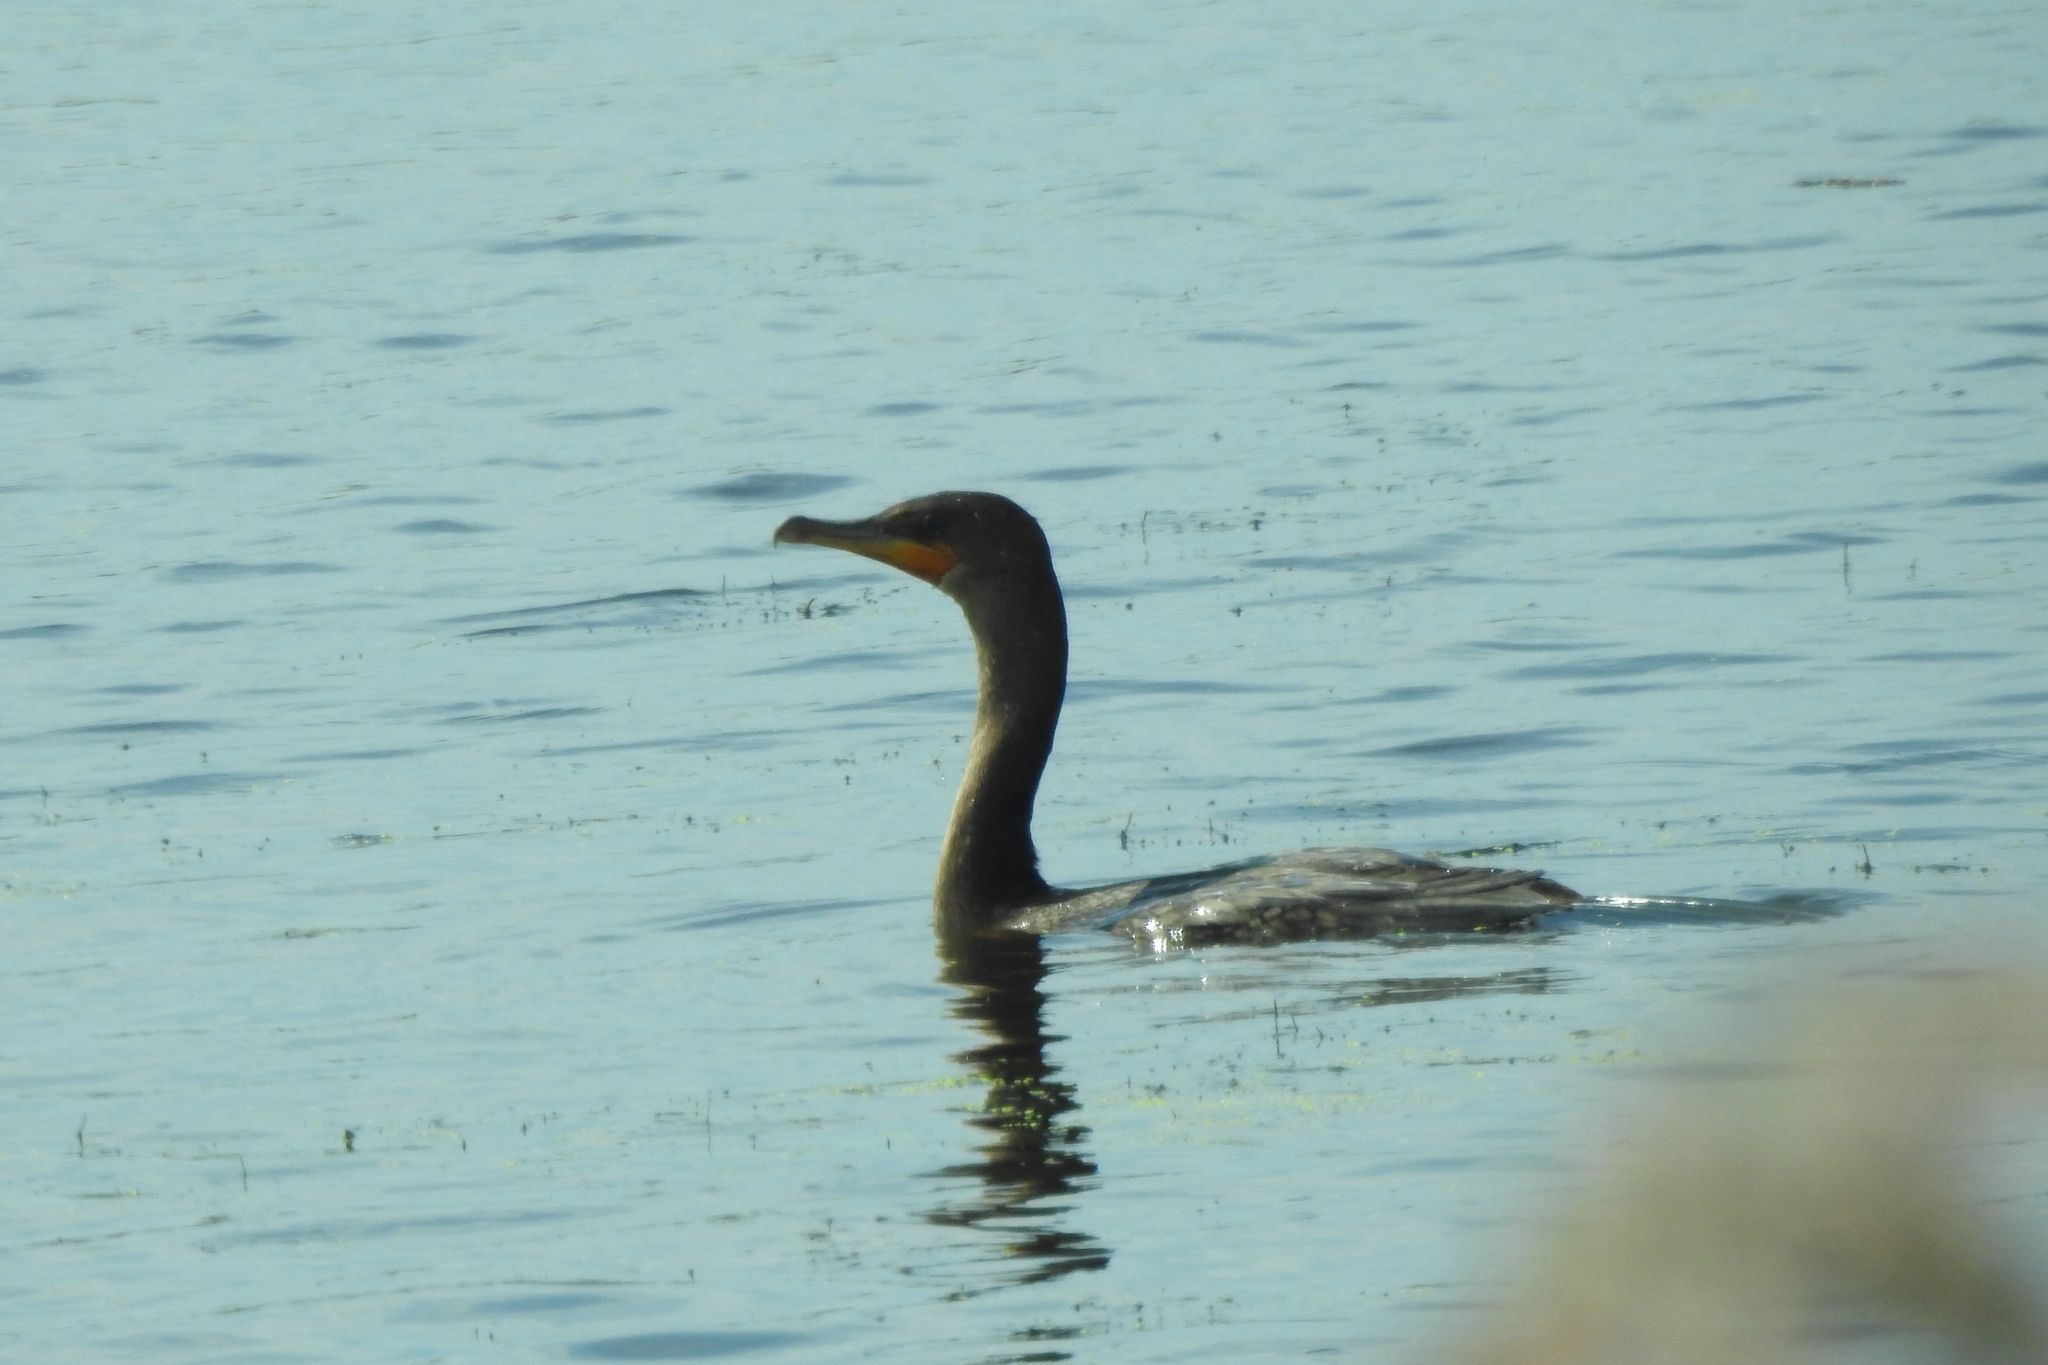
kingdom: Animalia
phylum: Chordata
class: Aves
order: Suliformes
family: Phalacrocoracidae
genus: Phalacrocorax
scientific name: Phalacrocorax auritus
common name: Double-crested cormorant
